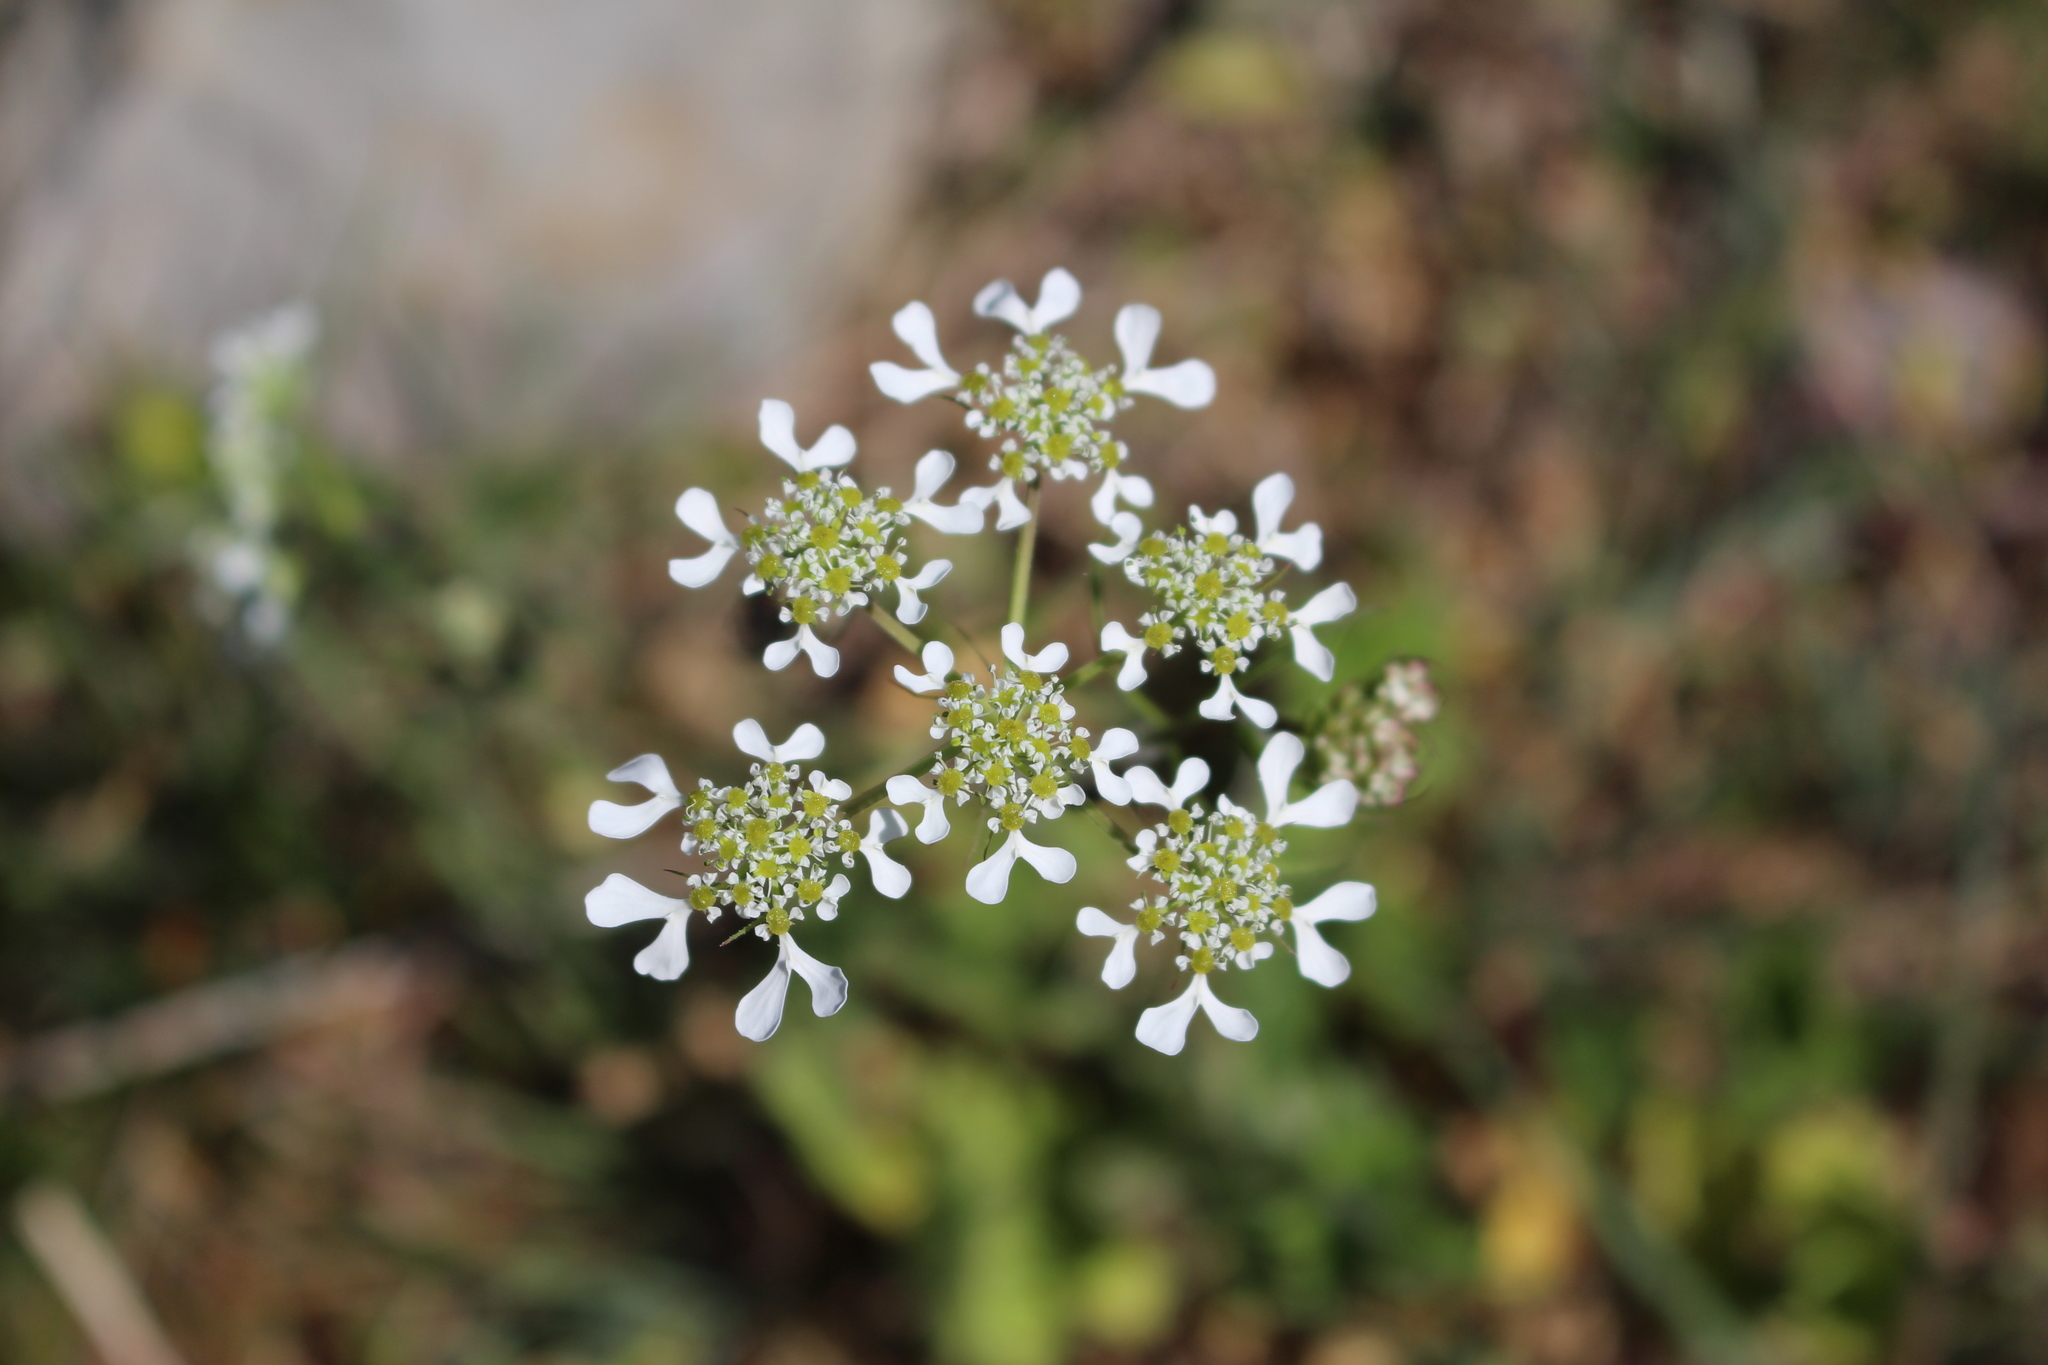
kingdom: Plantae
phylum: Tracheophyta
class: Magnoliopsida
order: Apiales
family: Apiaceae
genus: Tordylium
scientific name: Tordylium apulum
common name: Mediterranean hartwort
